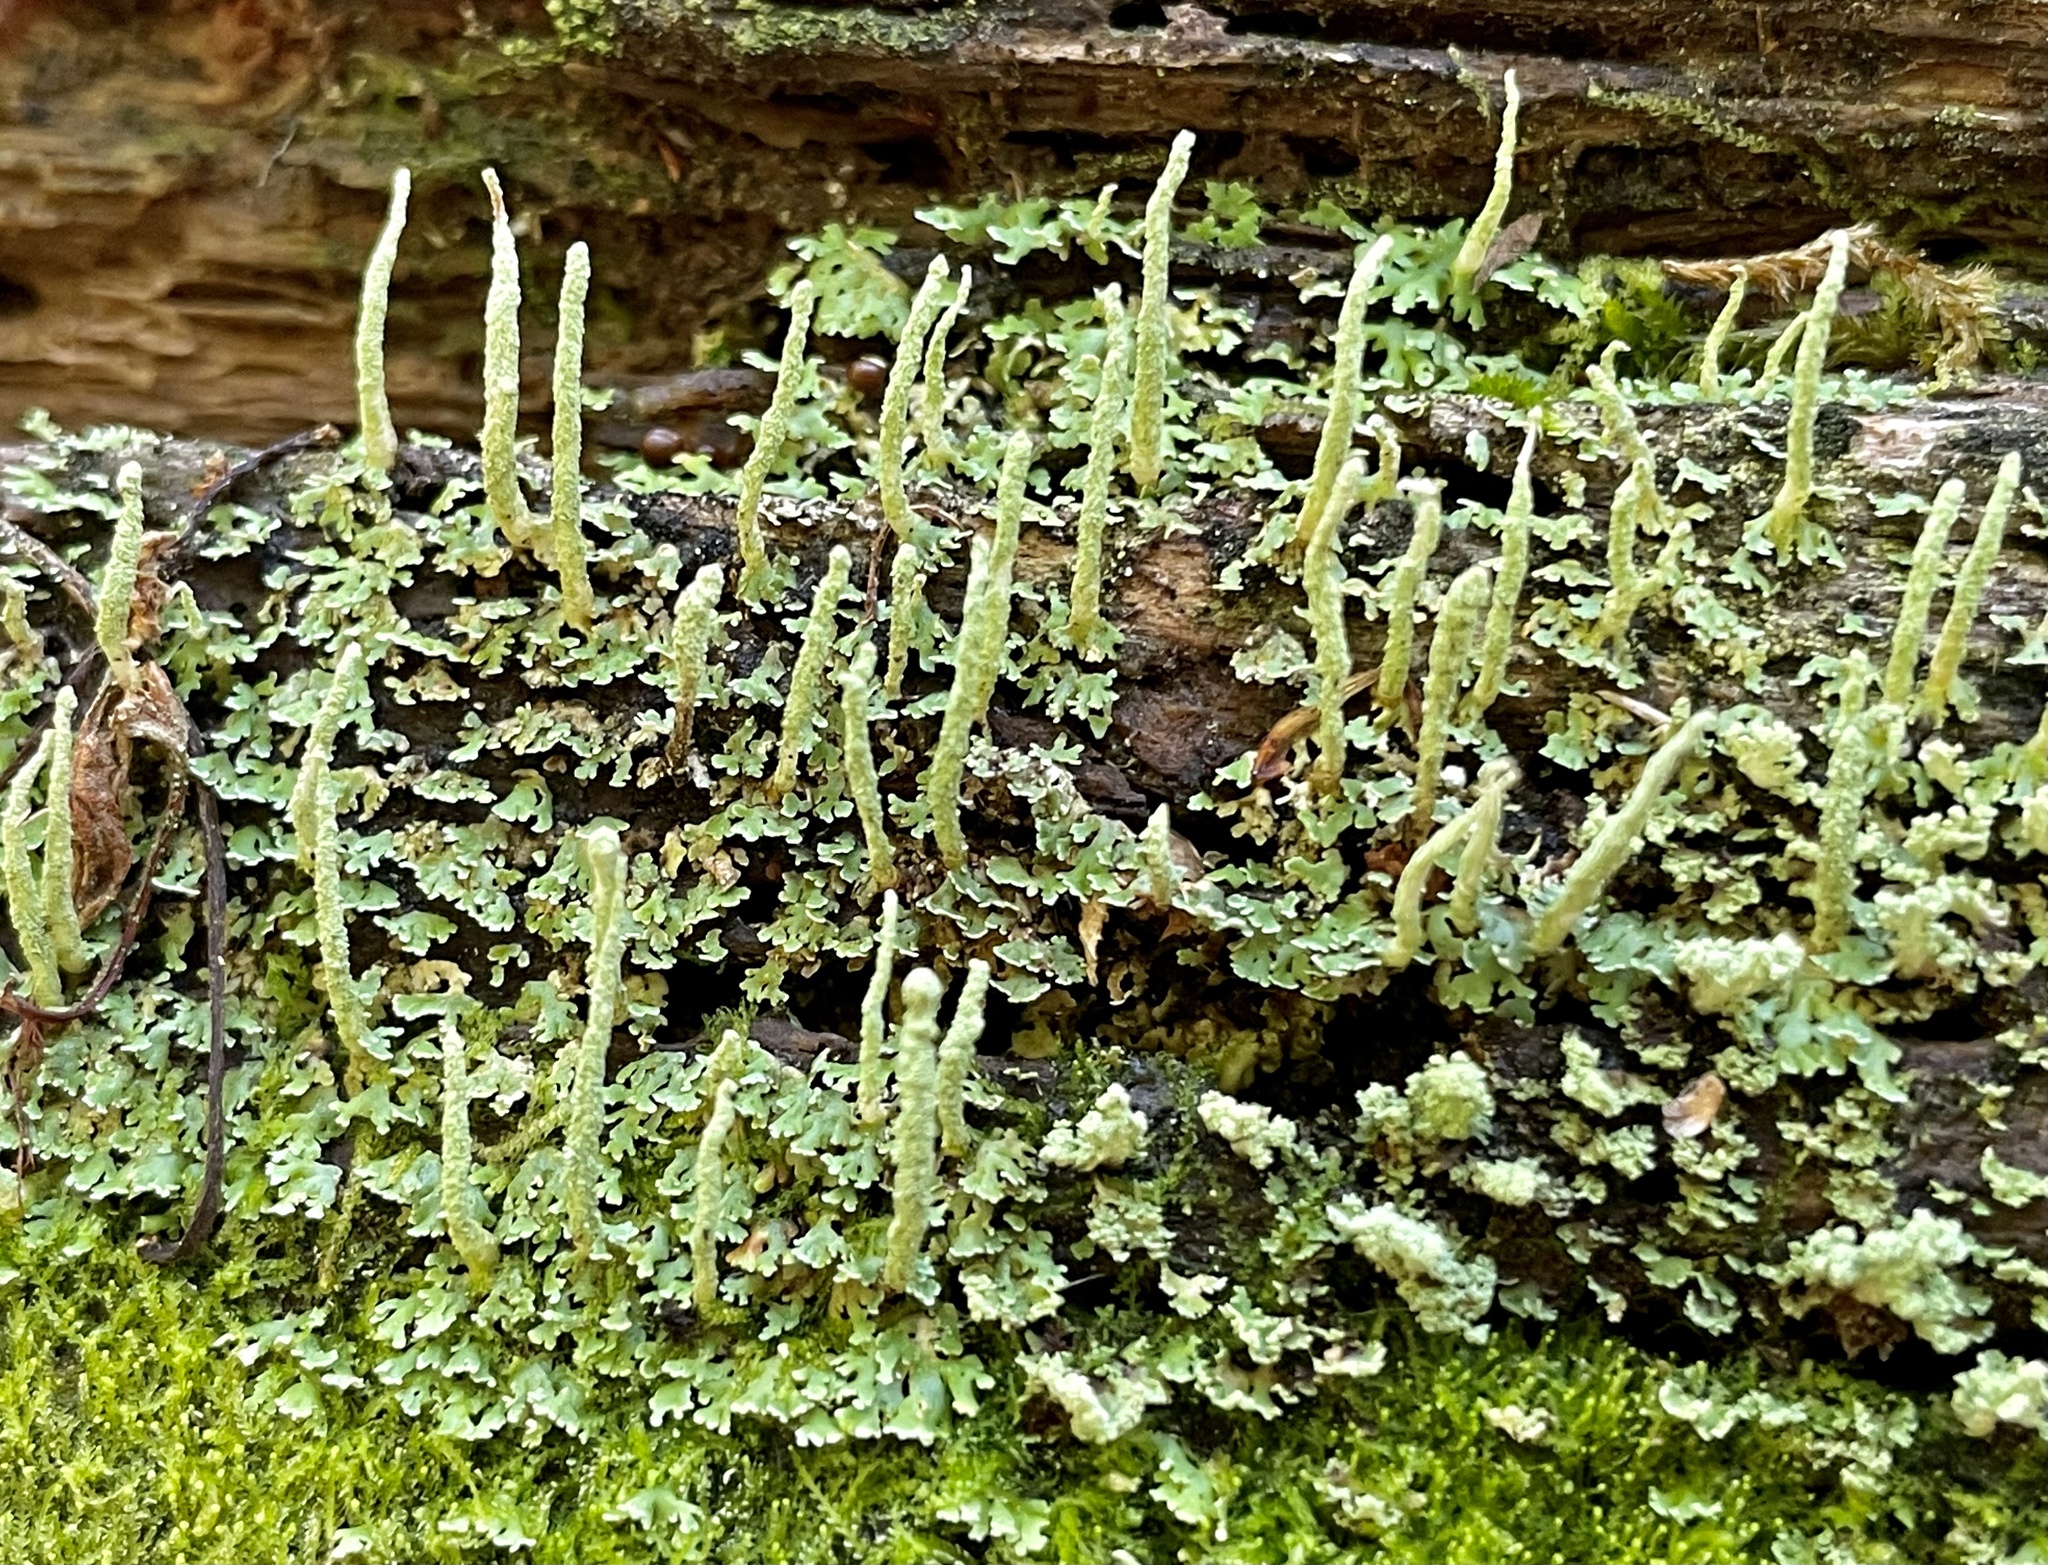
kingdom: Fungi
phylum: Ascomycota
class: Lecanoromycetes
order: Lecanorales
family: Cladoniaceae
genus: Cladonia
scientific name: Cladonia ochrochlora
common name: Smooth-footed powderhorn
